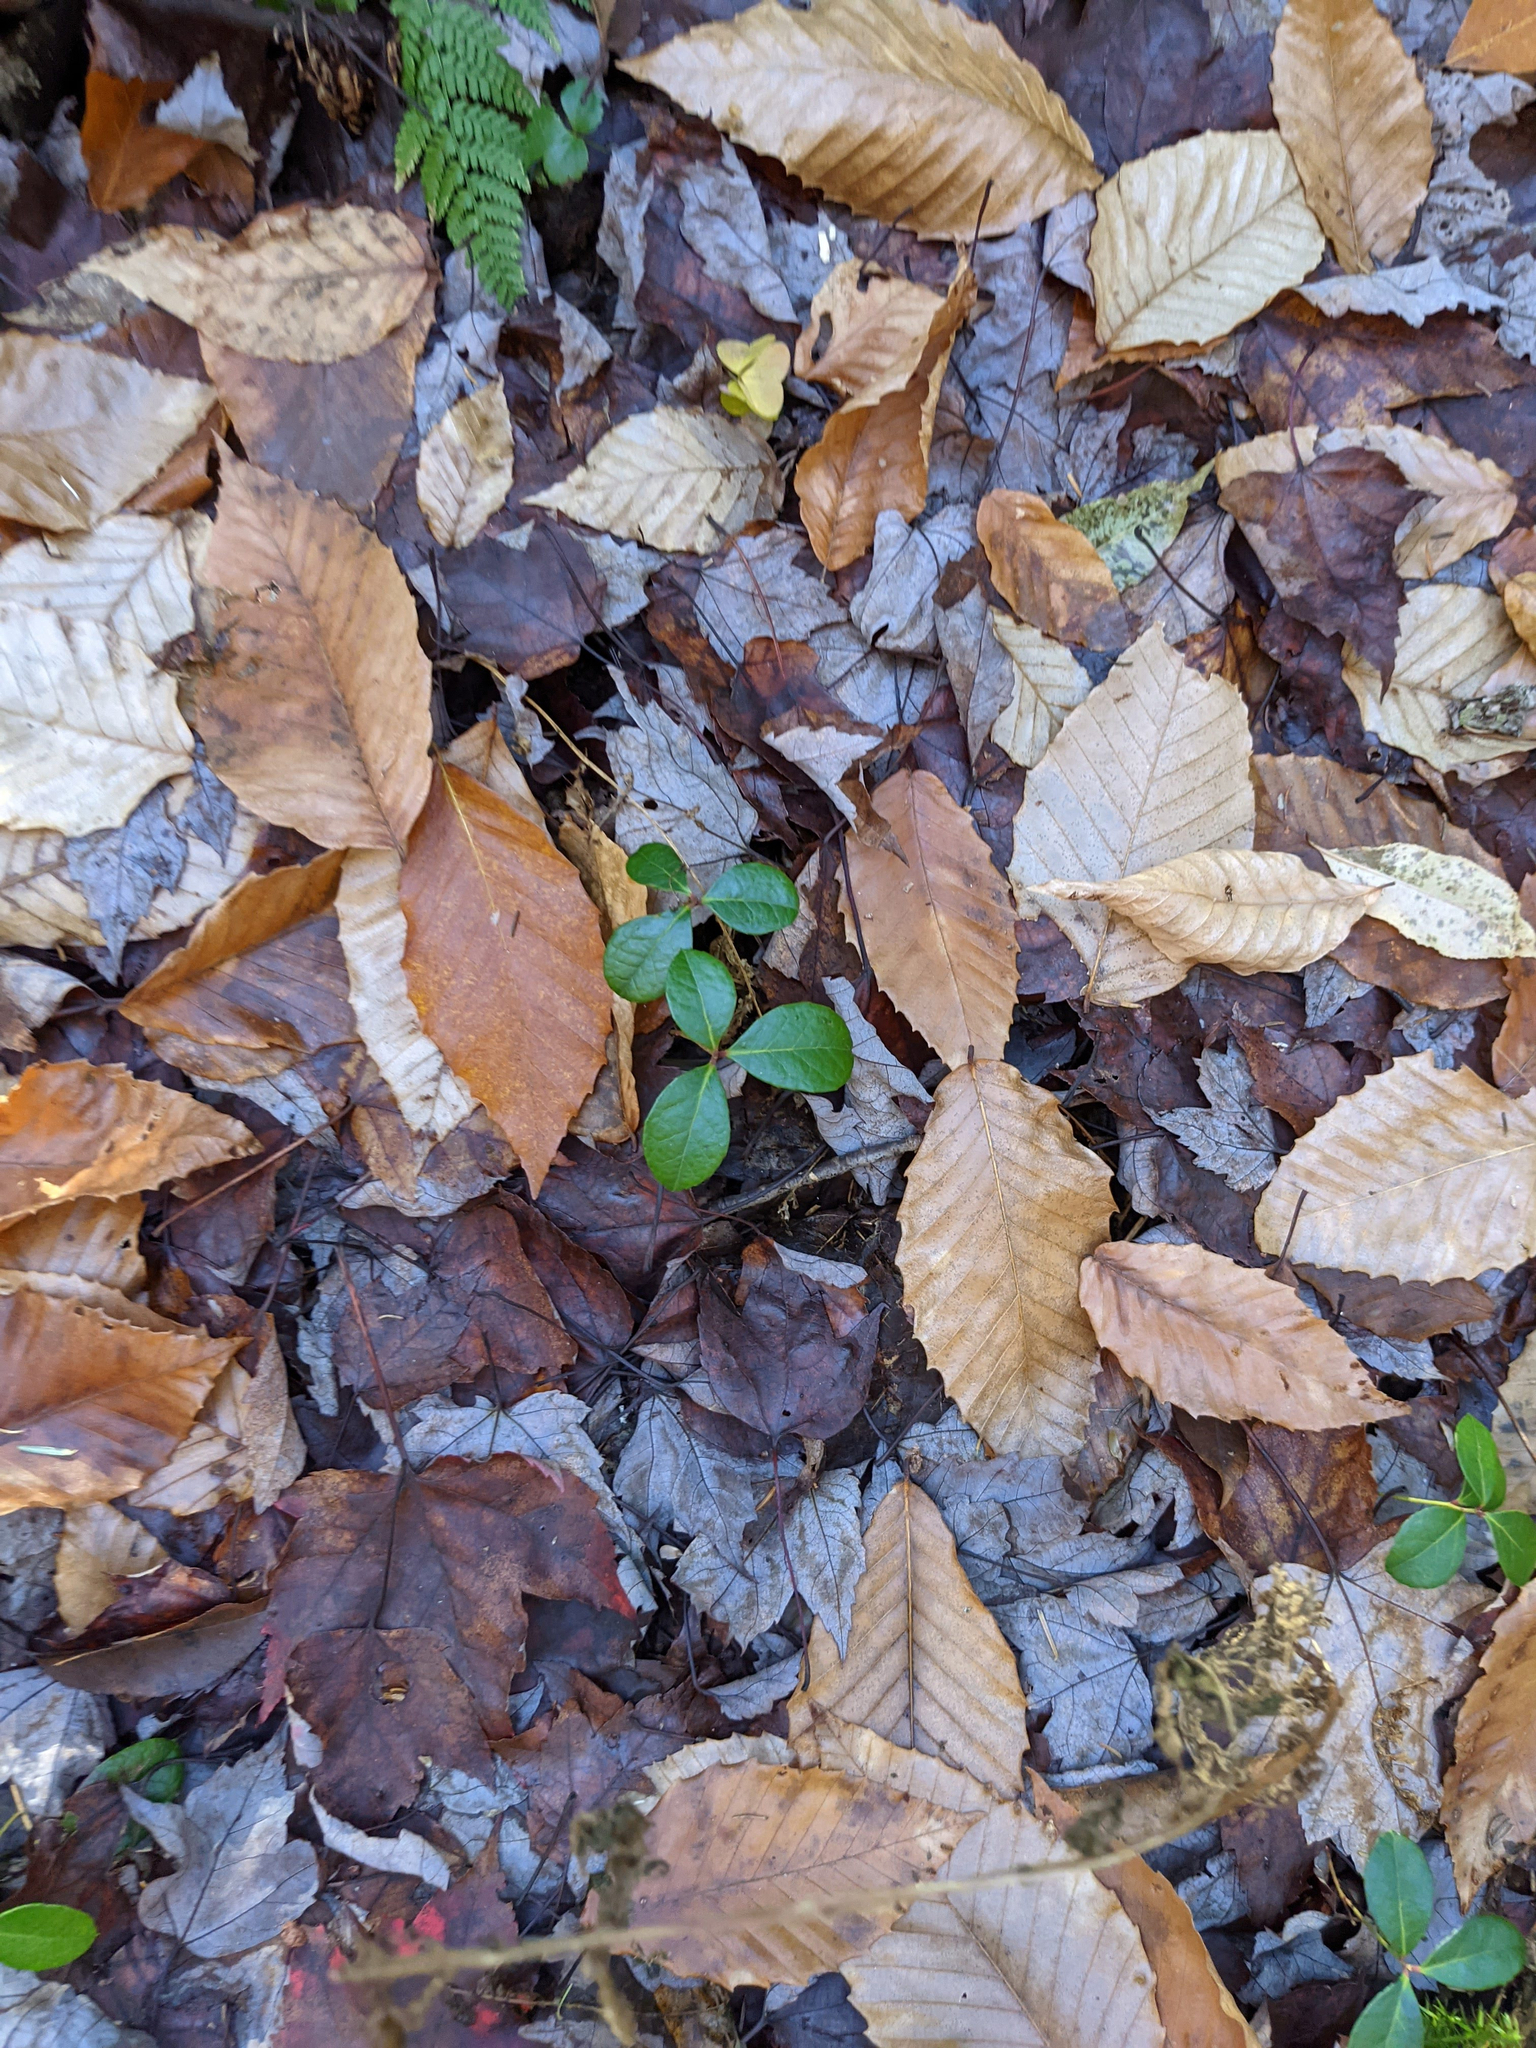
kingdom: Plantae
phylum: Tracheophyta
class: Magnoliopsida
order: Ericales
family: Ericaceae
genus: Gaultheria
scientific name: Gaultheria procumbens
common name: Checkerberry
